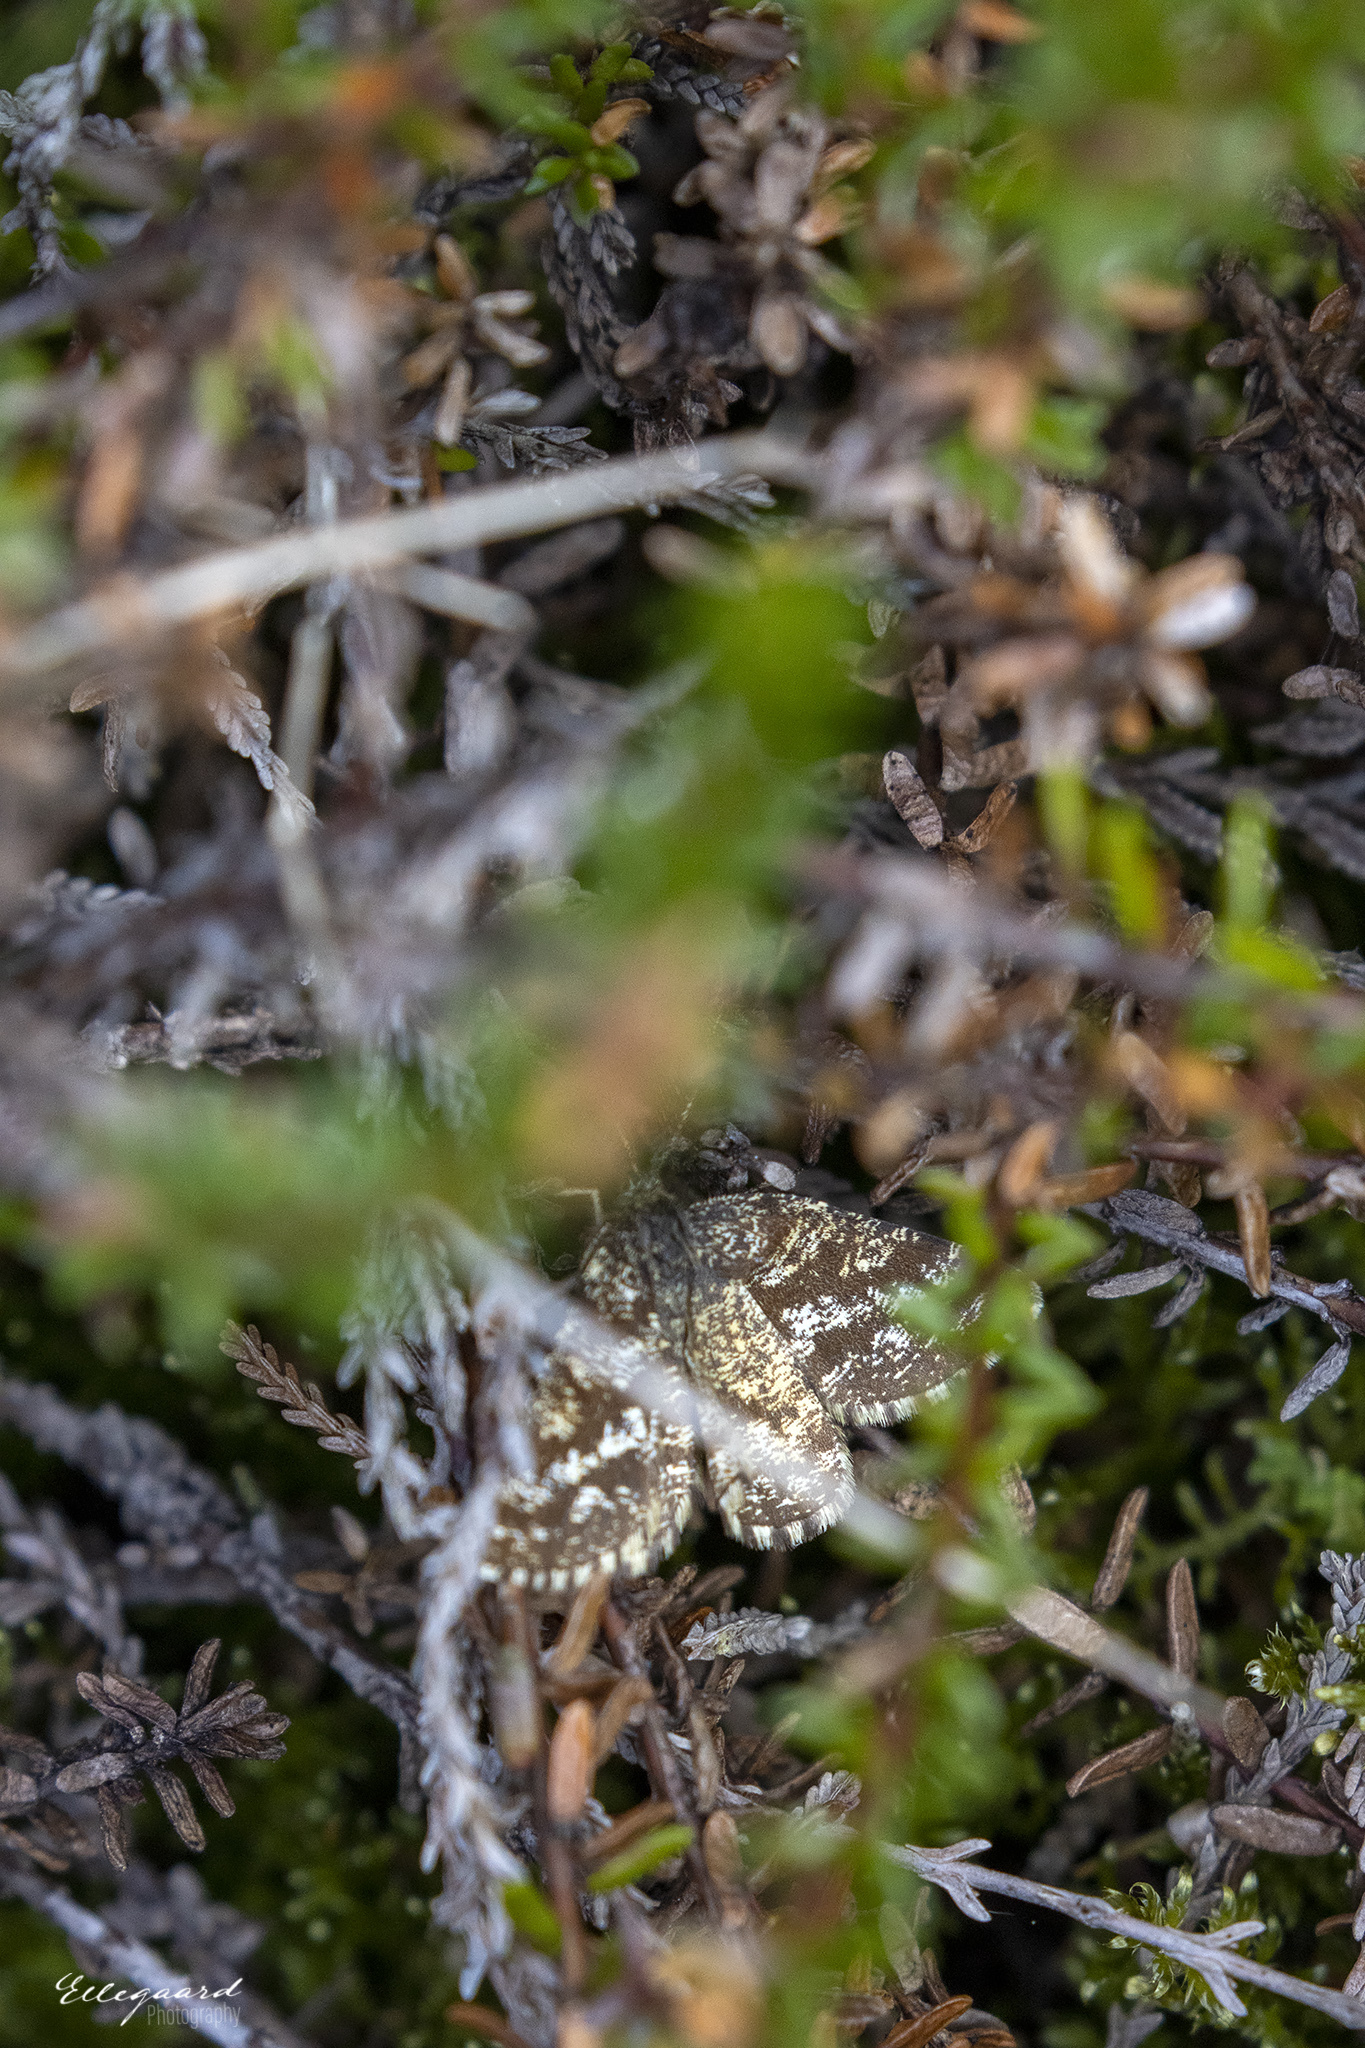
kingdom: Animalia
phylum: Arthropoda
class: Insecta
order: Lepidoptera
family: Geometridae
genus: Ematurga
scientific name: Ematurga atomaria
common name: Common heath
